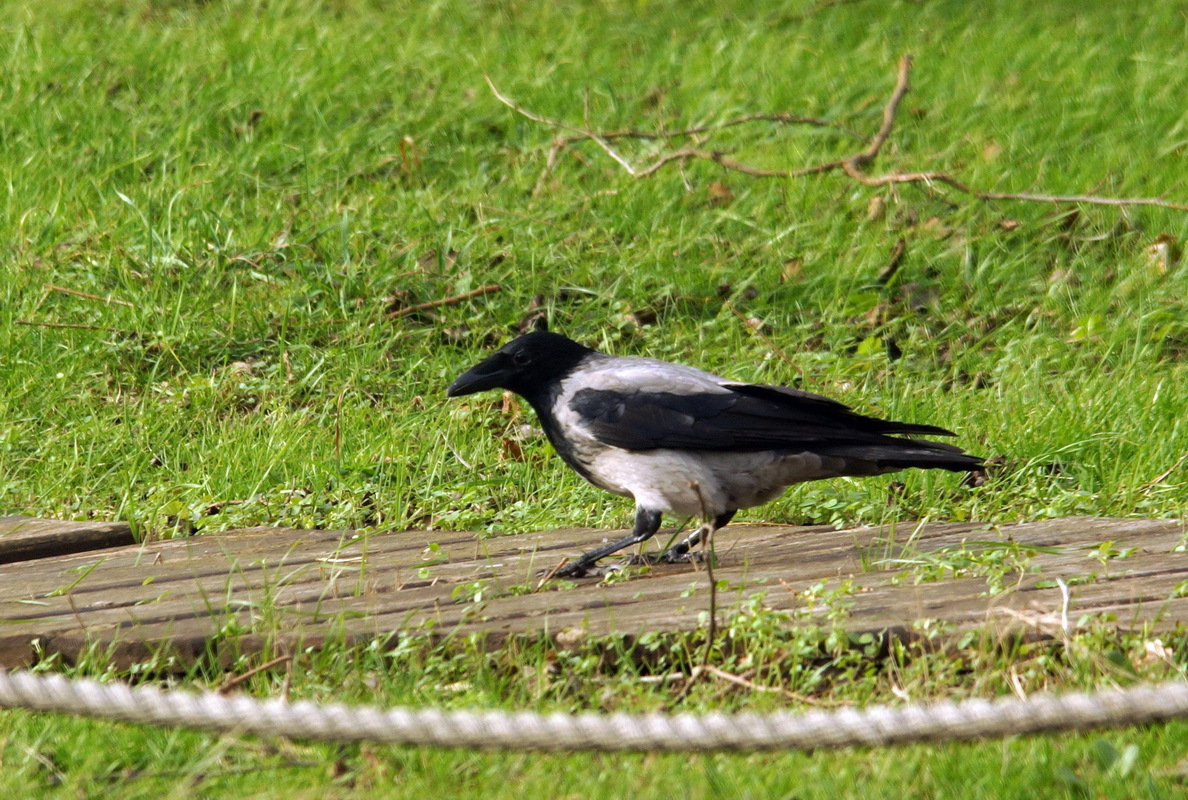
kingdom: Animalia
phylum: Chordata
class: Aves
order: Passeriformes
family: Corvidae
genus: Corvus
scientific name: Corvus cornix
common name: Hooded crow
